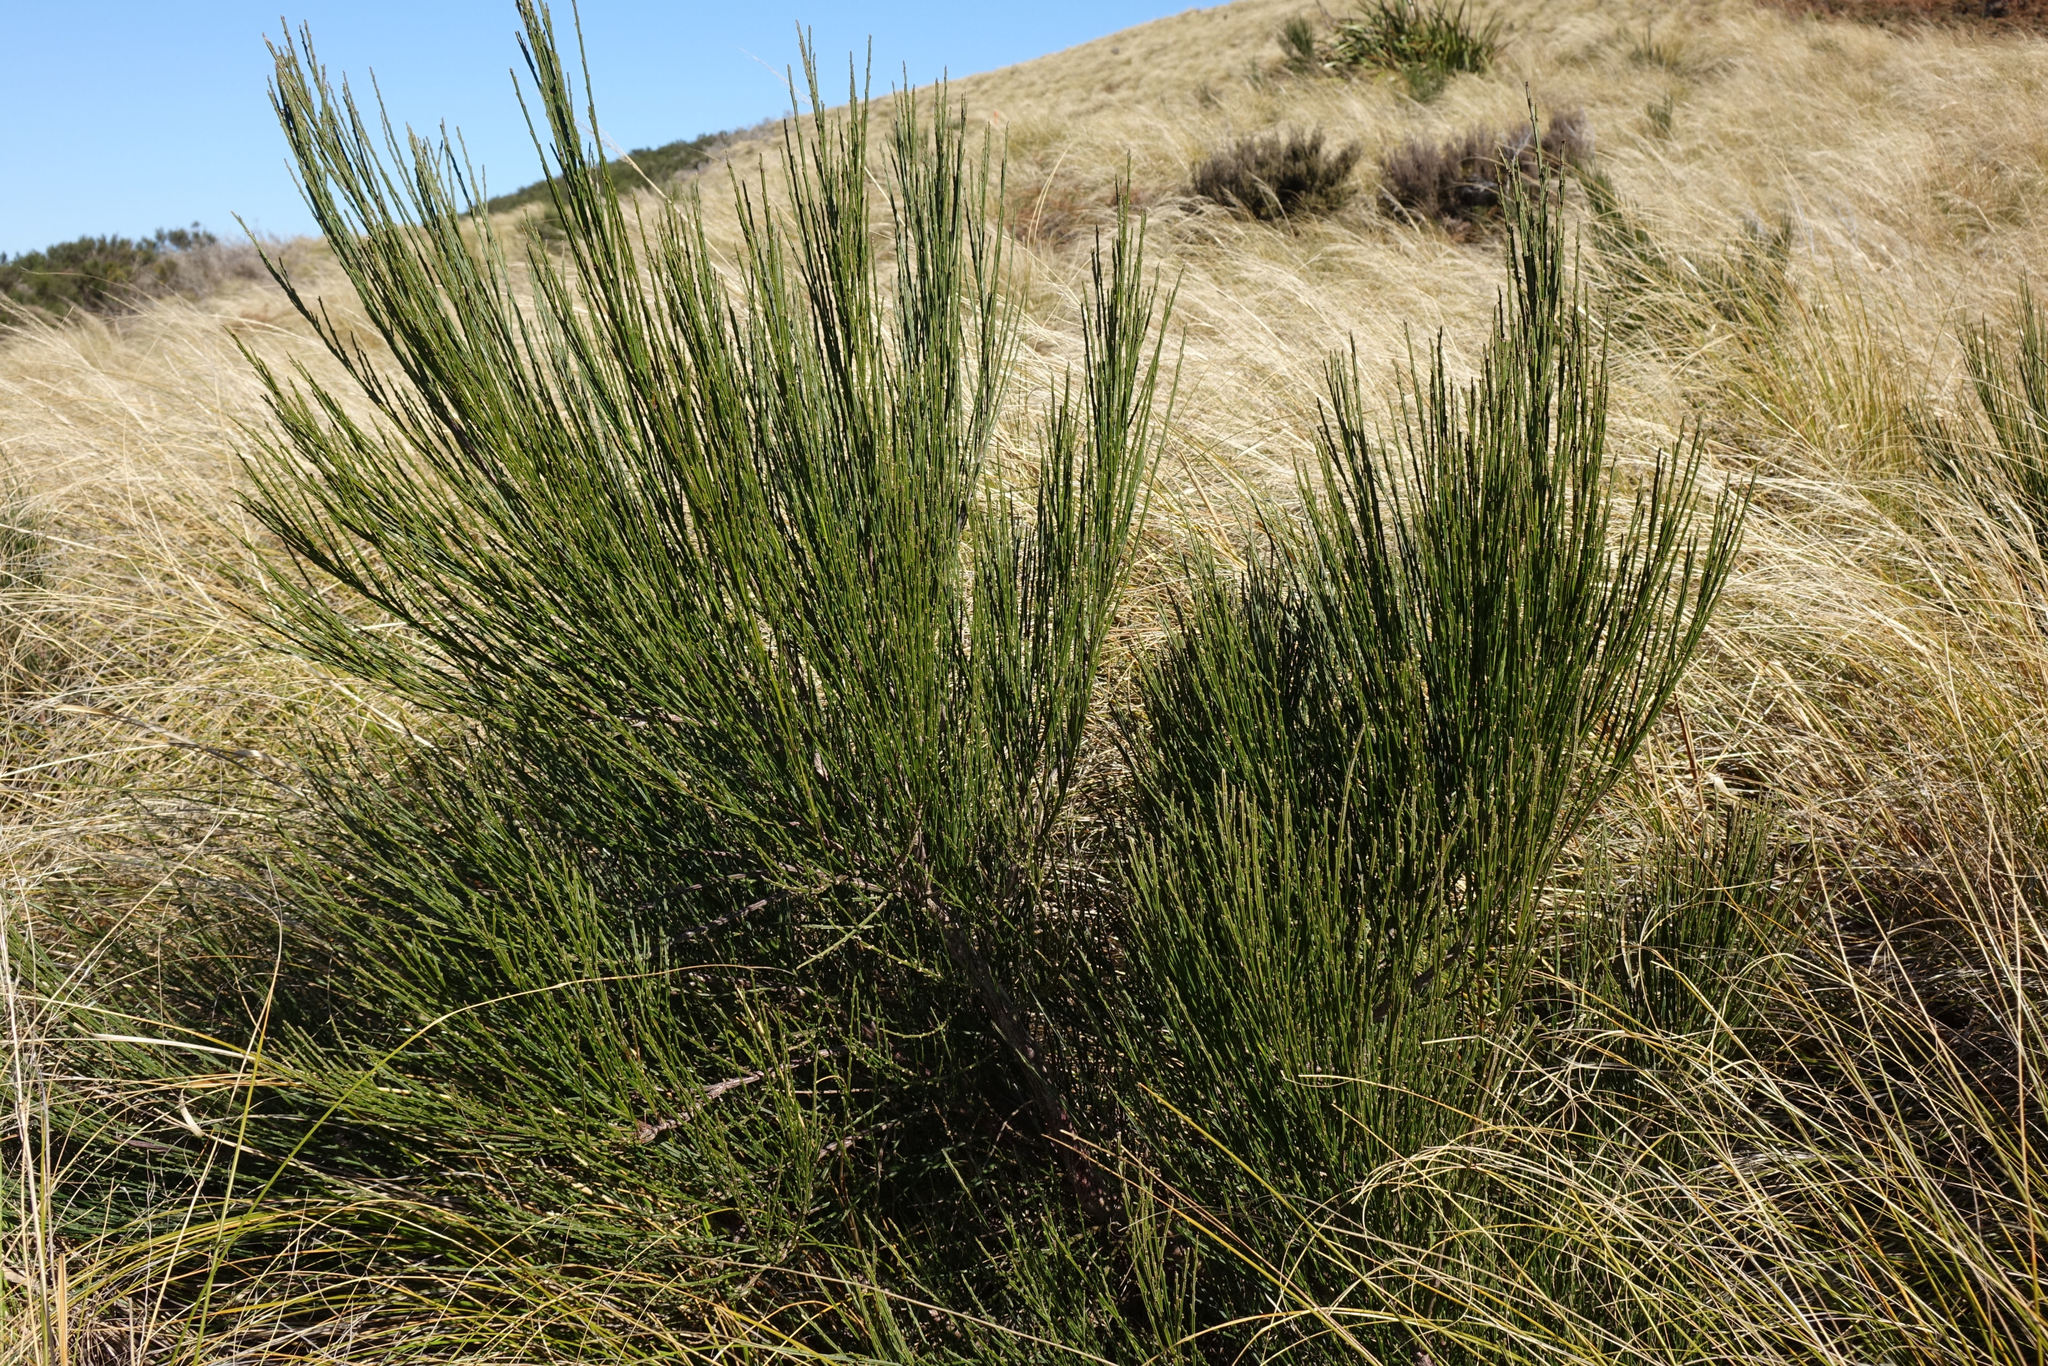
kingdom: Plantae
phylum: Tracheophyta
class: Magnoliopsida
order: Fabales
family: Fabaceae
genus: Cytisus
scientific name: Cytisus scoparius
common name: Scotch broom
